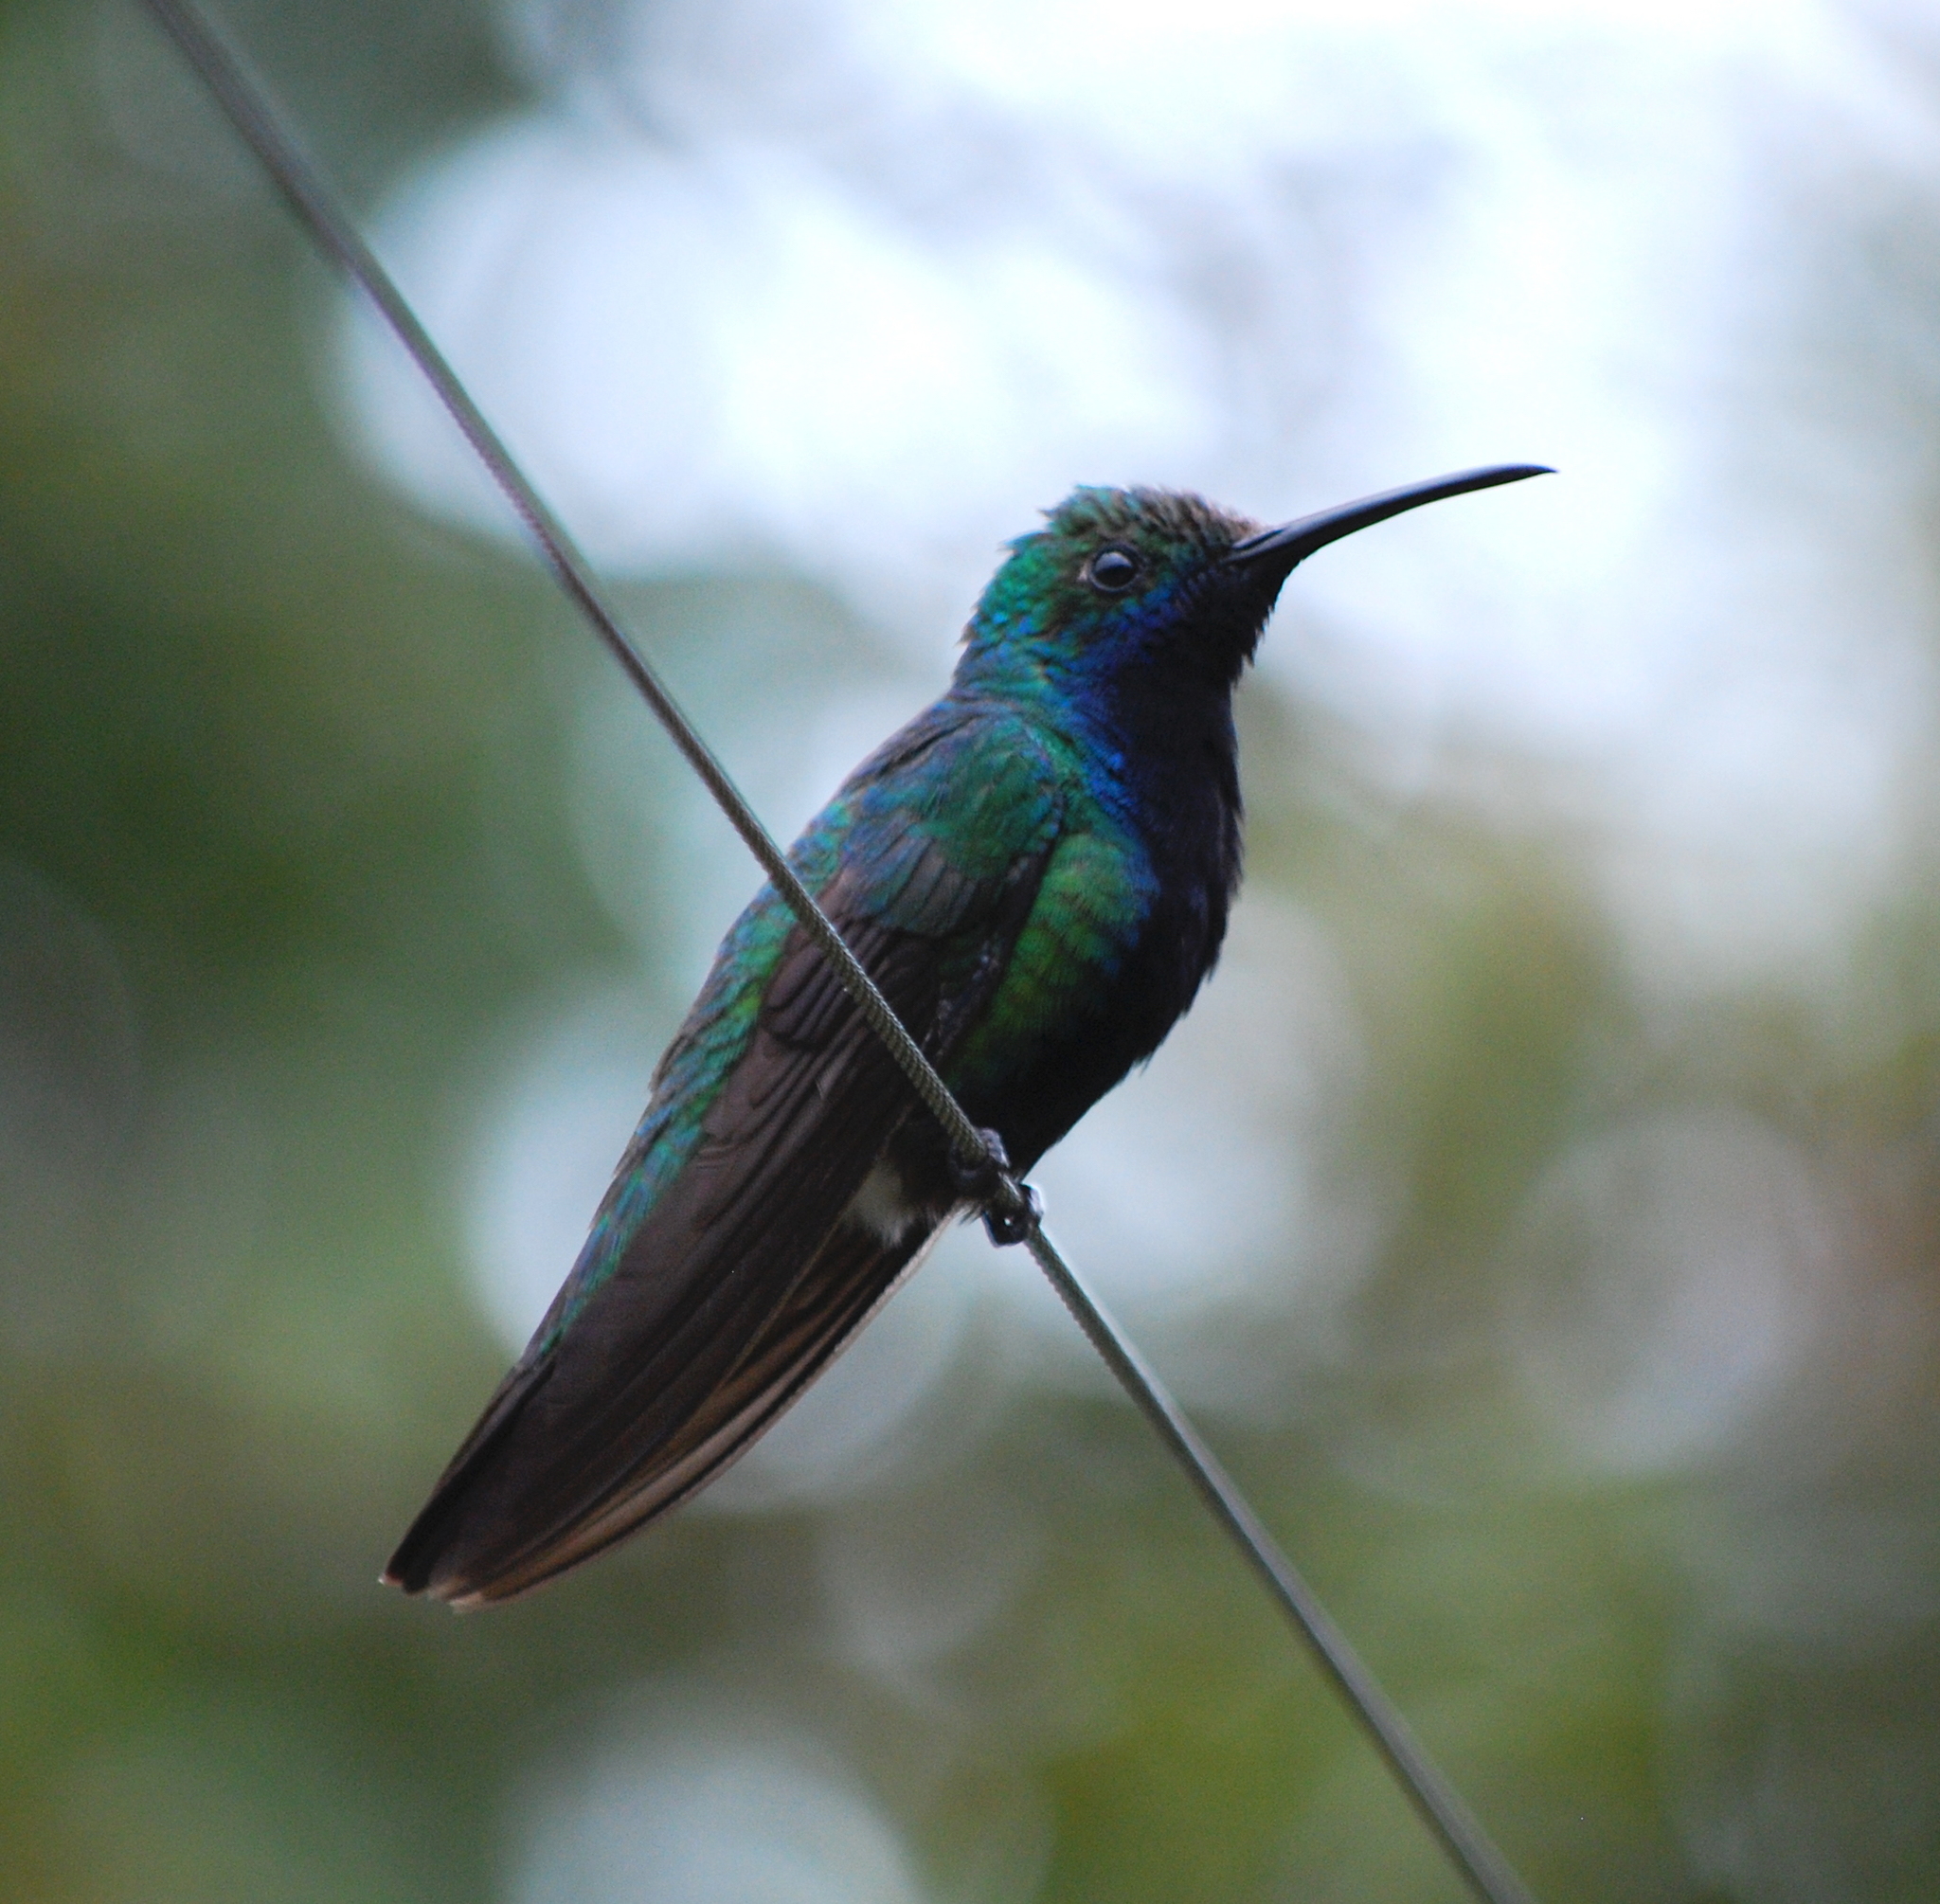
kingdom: Animalia
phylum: Chordata
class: Aves
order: Apodiformes
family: Trochilidae
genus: Colibri
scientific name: Colibri coruscans
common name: Sparkling violetear
